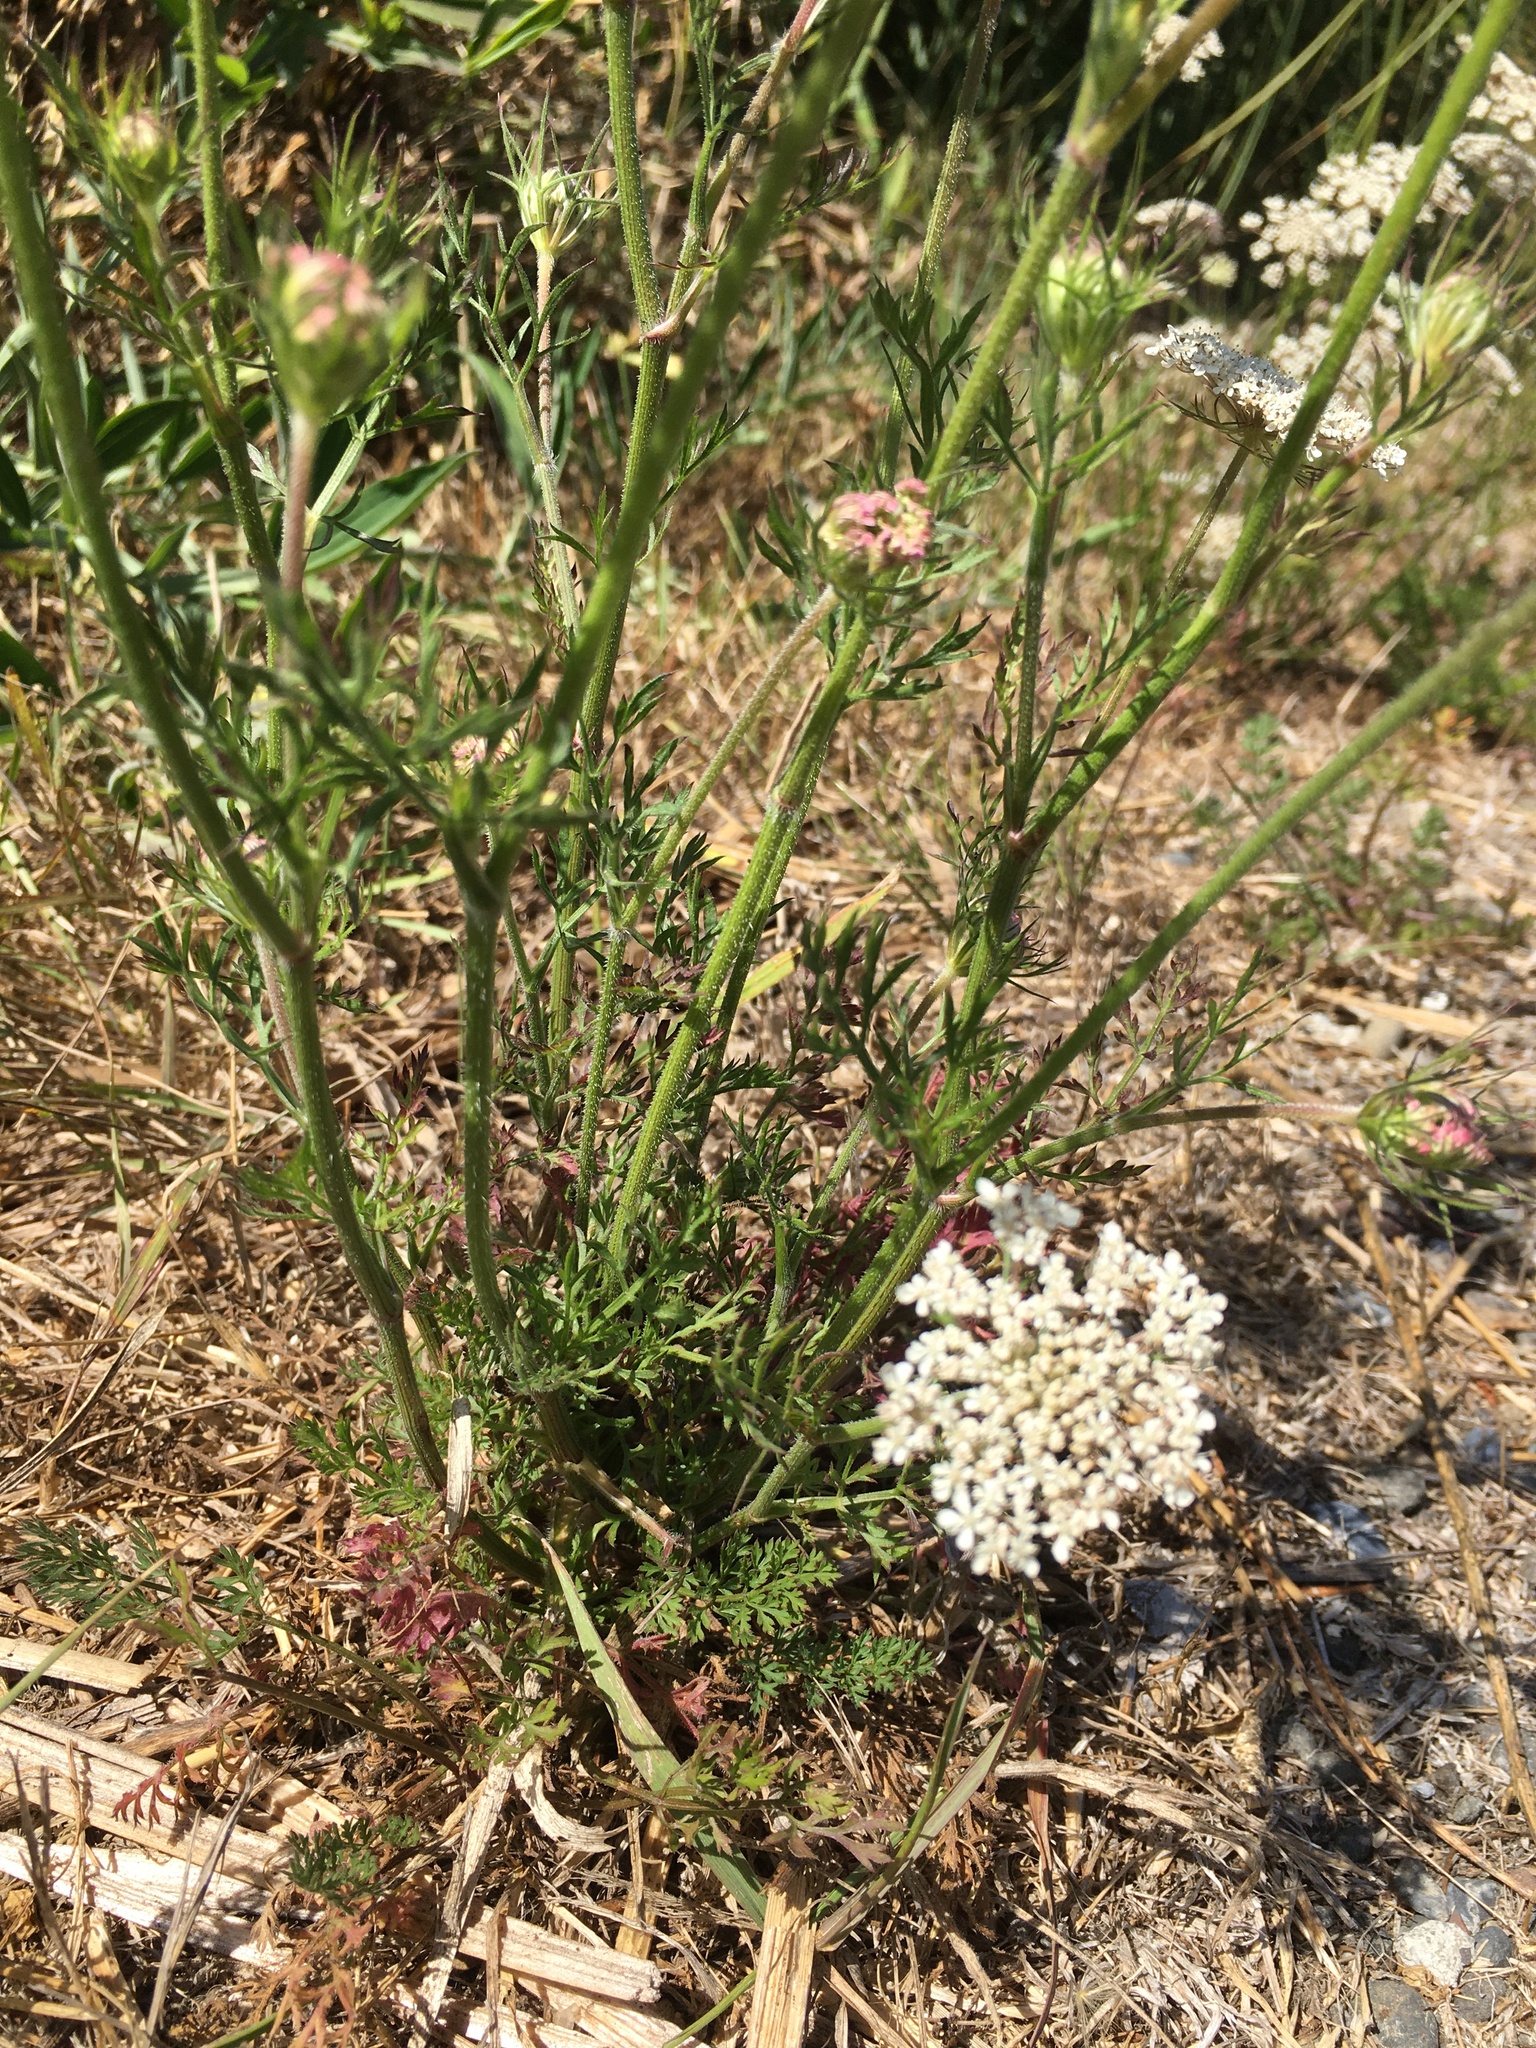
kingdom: Plantae
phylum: Tracheophyta
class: Magnoliopsida
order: Apiales
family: Apiaceae
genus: Daucus
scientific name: Daucus carota
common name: Wild carrot
